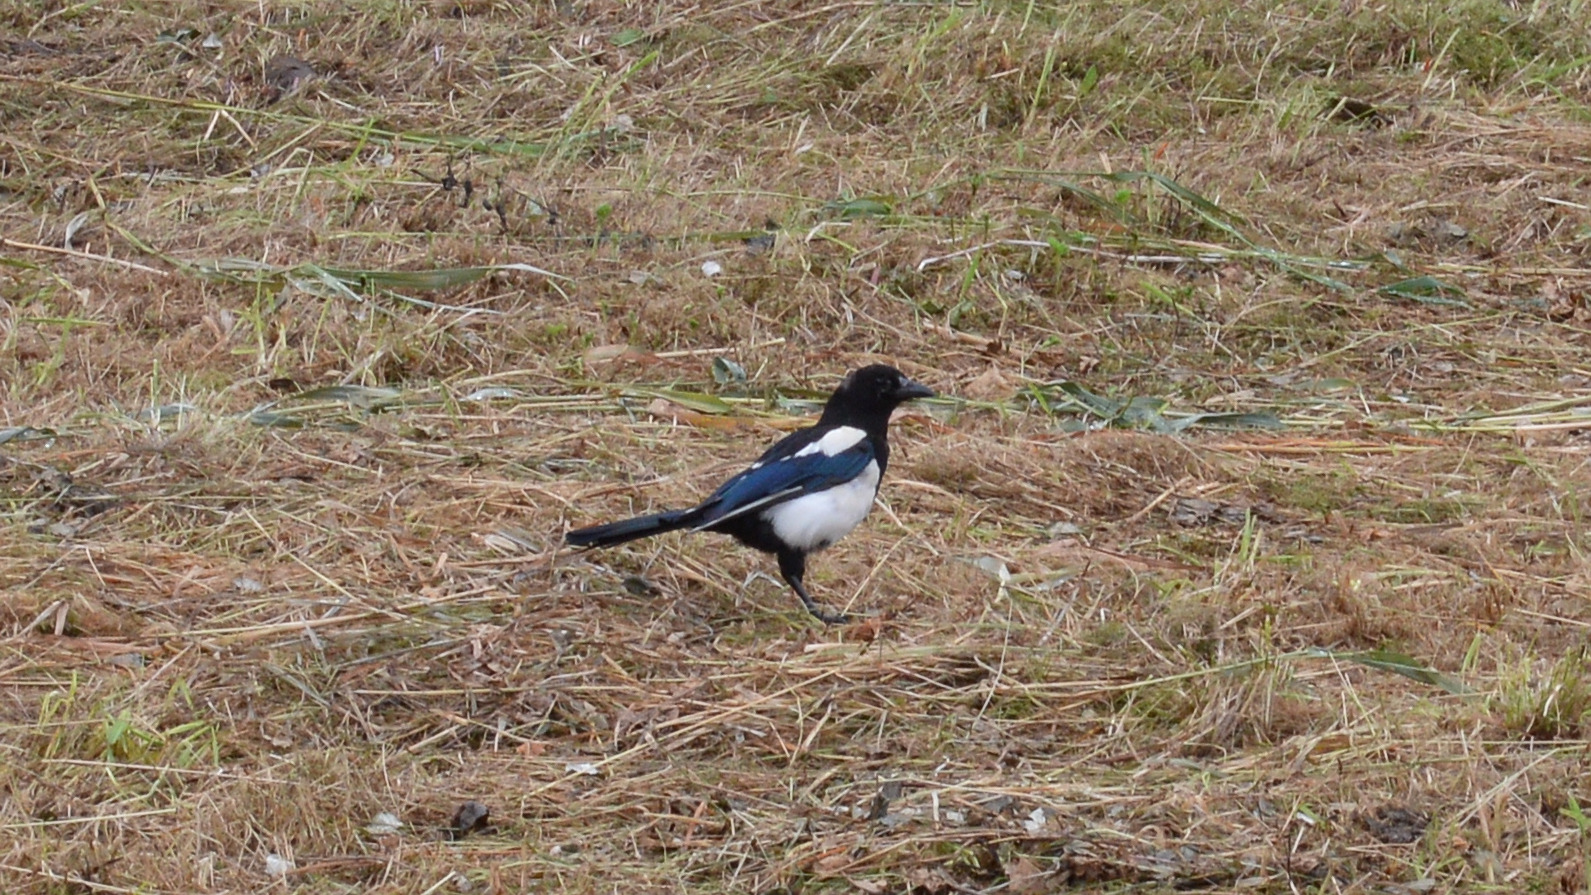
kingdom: Animalia
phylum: Chordata
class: Aves
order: Passeriformes
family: Corvidae
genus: Pica
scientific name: Pica pica
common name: Eurasian magpie
